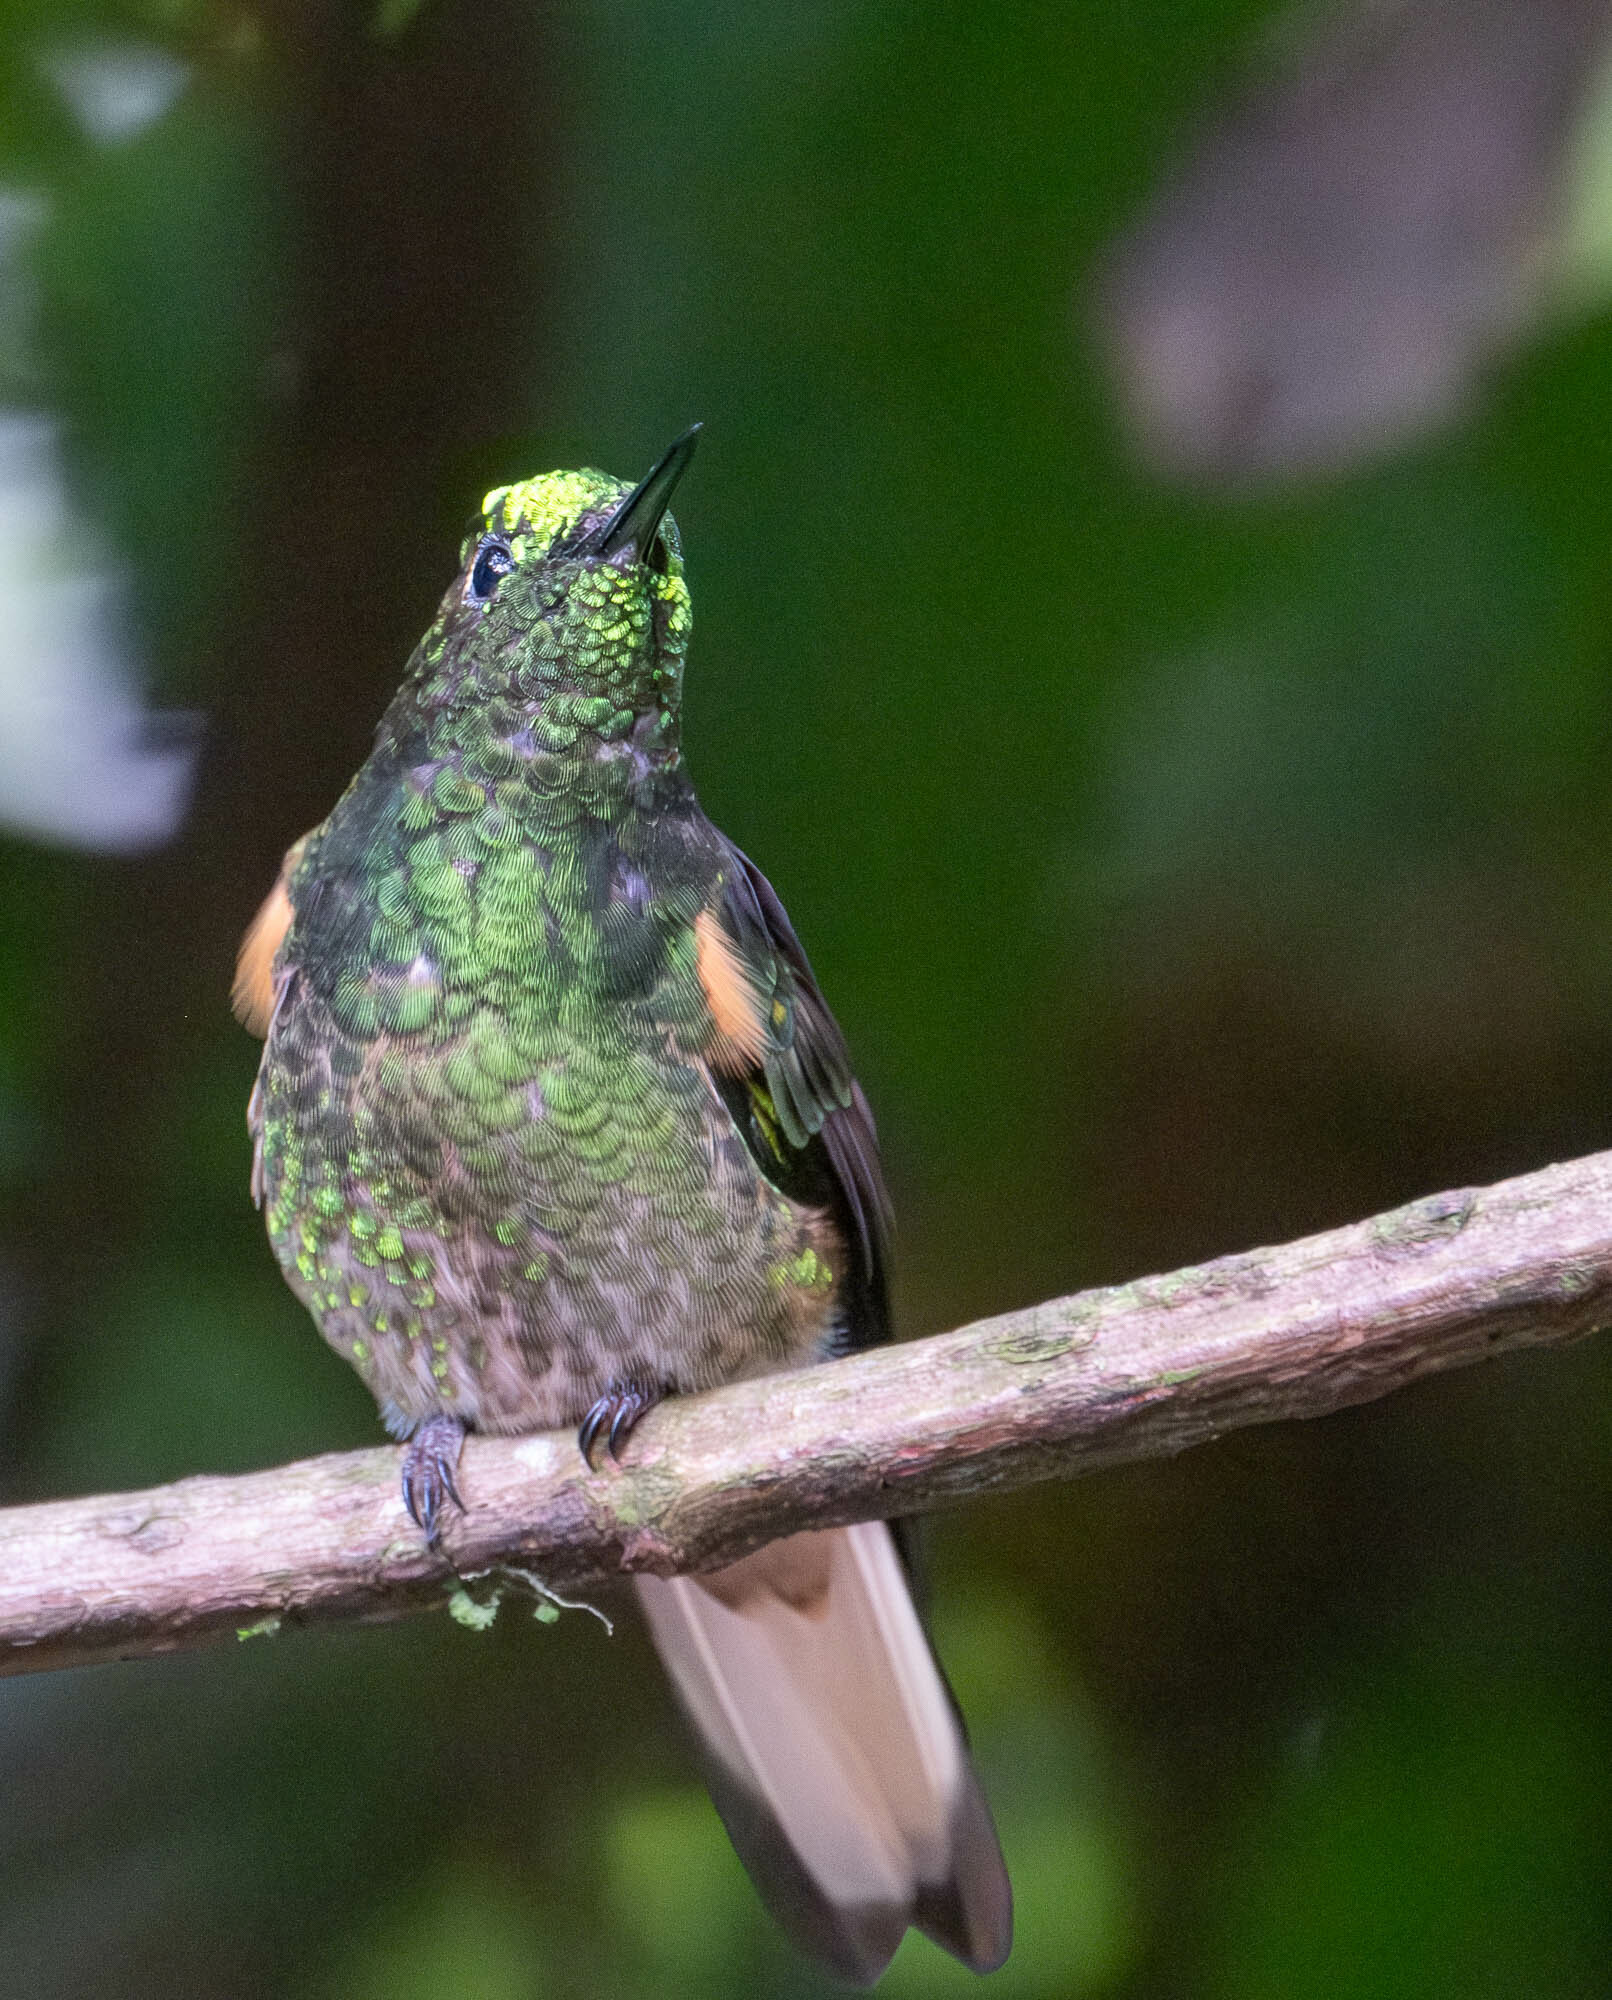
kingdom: Animalia
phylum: Chordata
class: Aves
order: Apodiformes
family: Trochilidae
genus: Boissonneaua
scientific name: Boissonneaua flavescens
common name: Buff-tailed coronet
